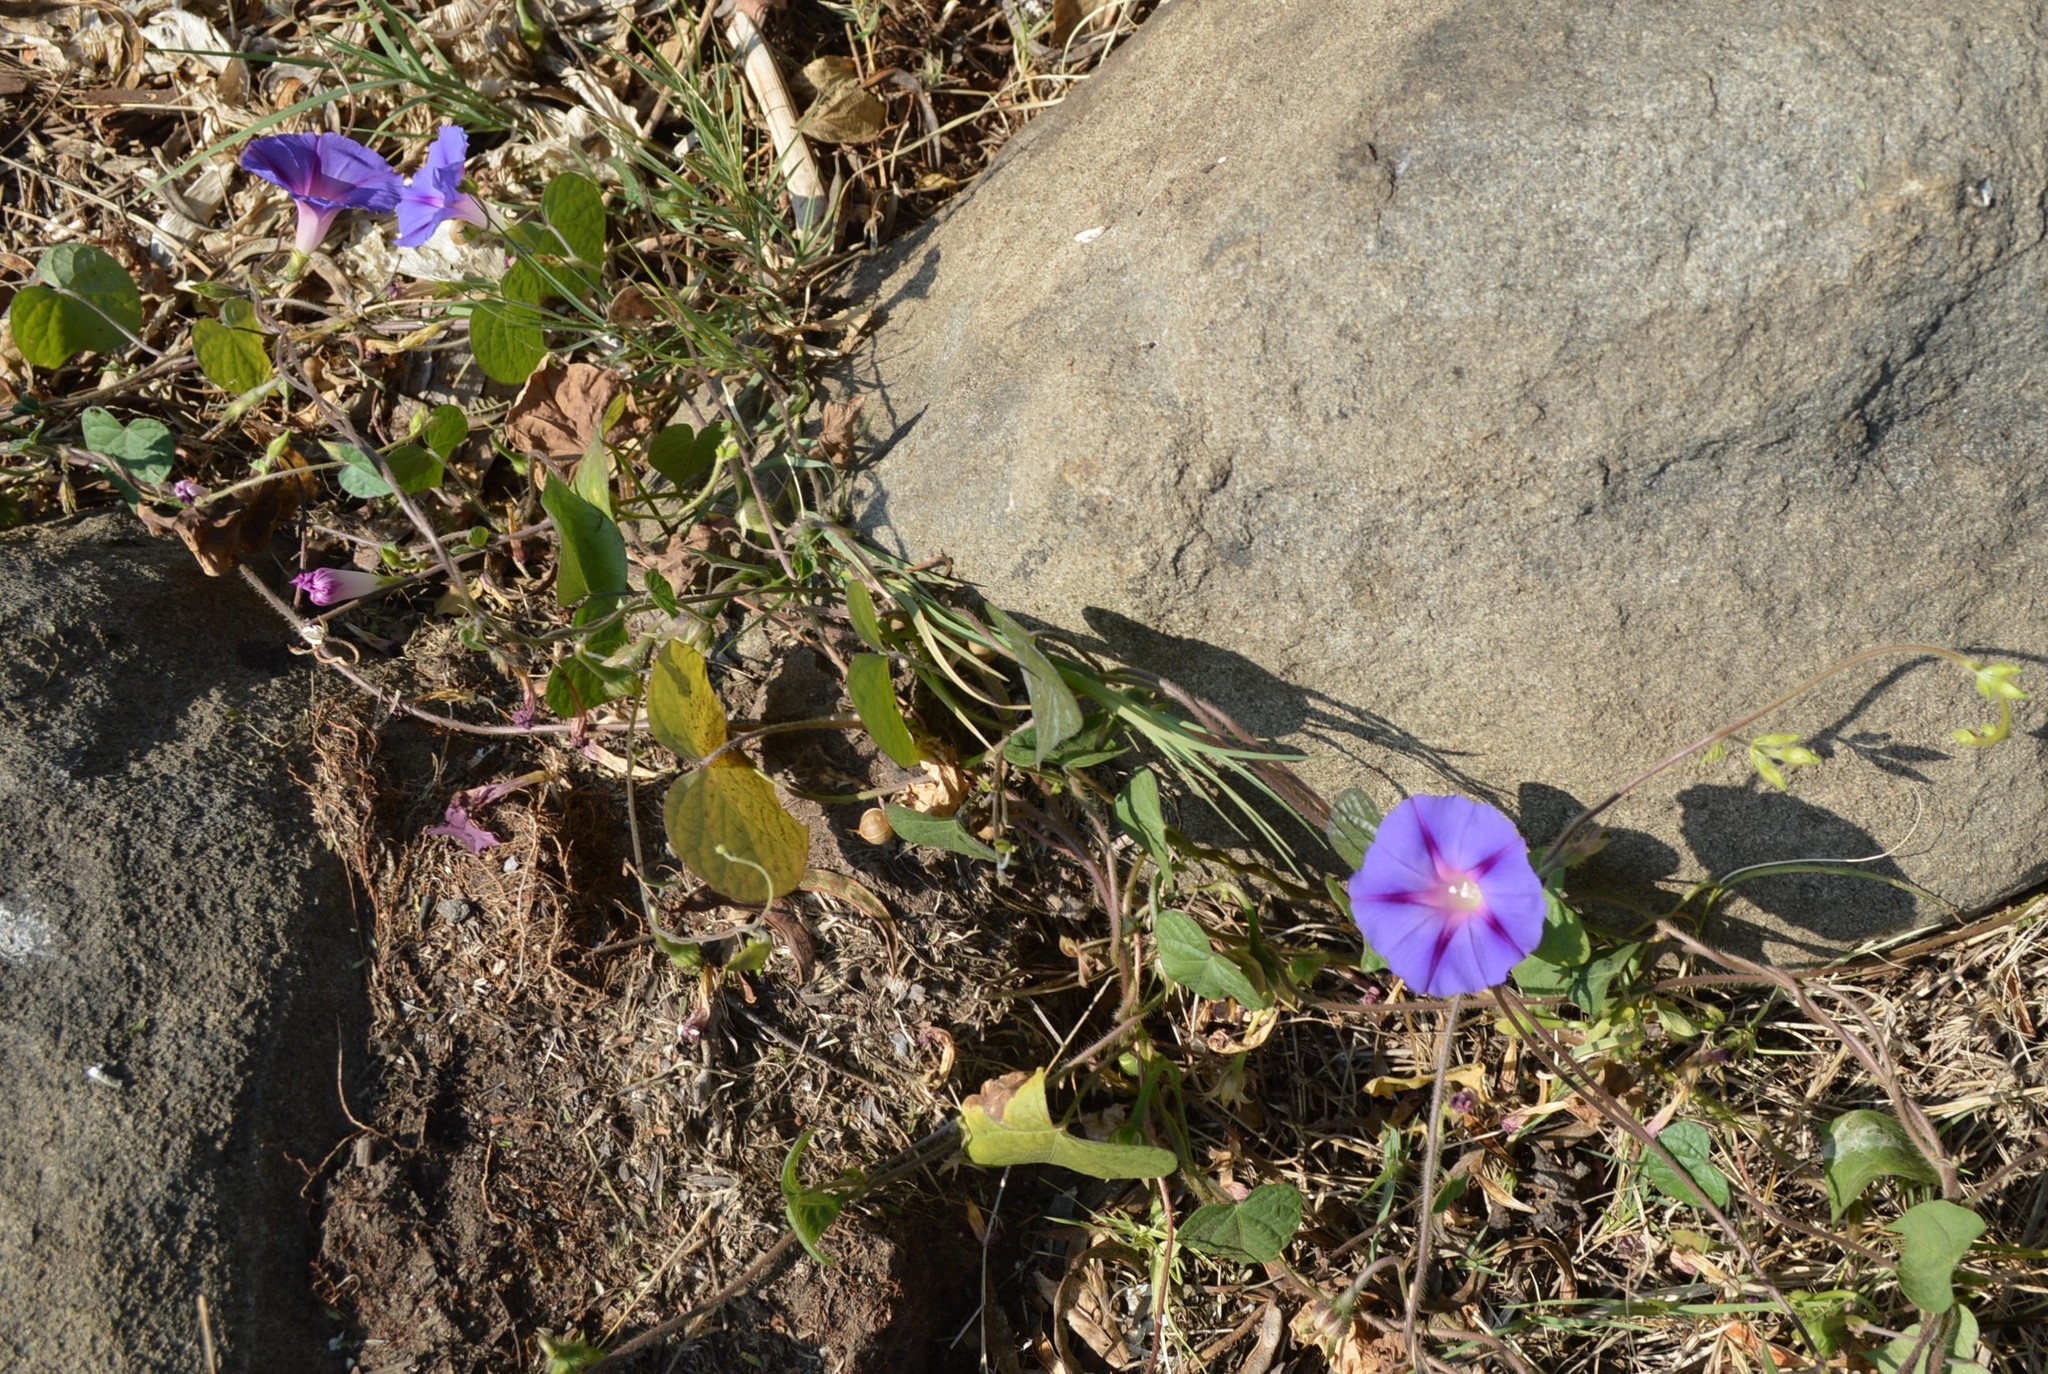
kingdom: Plantae
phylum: Tracheophyta
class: Magnoliopsida
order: Solanales
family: Convolvulaceae
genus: Ipomoea
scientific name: Ipomoea purpurea
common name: Common morning-glory
